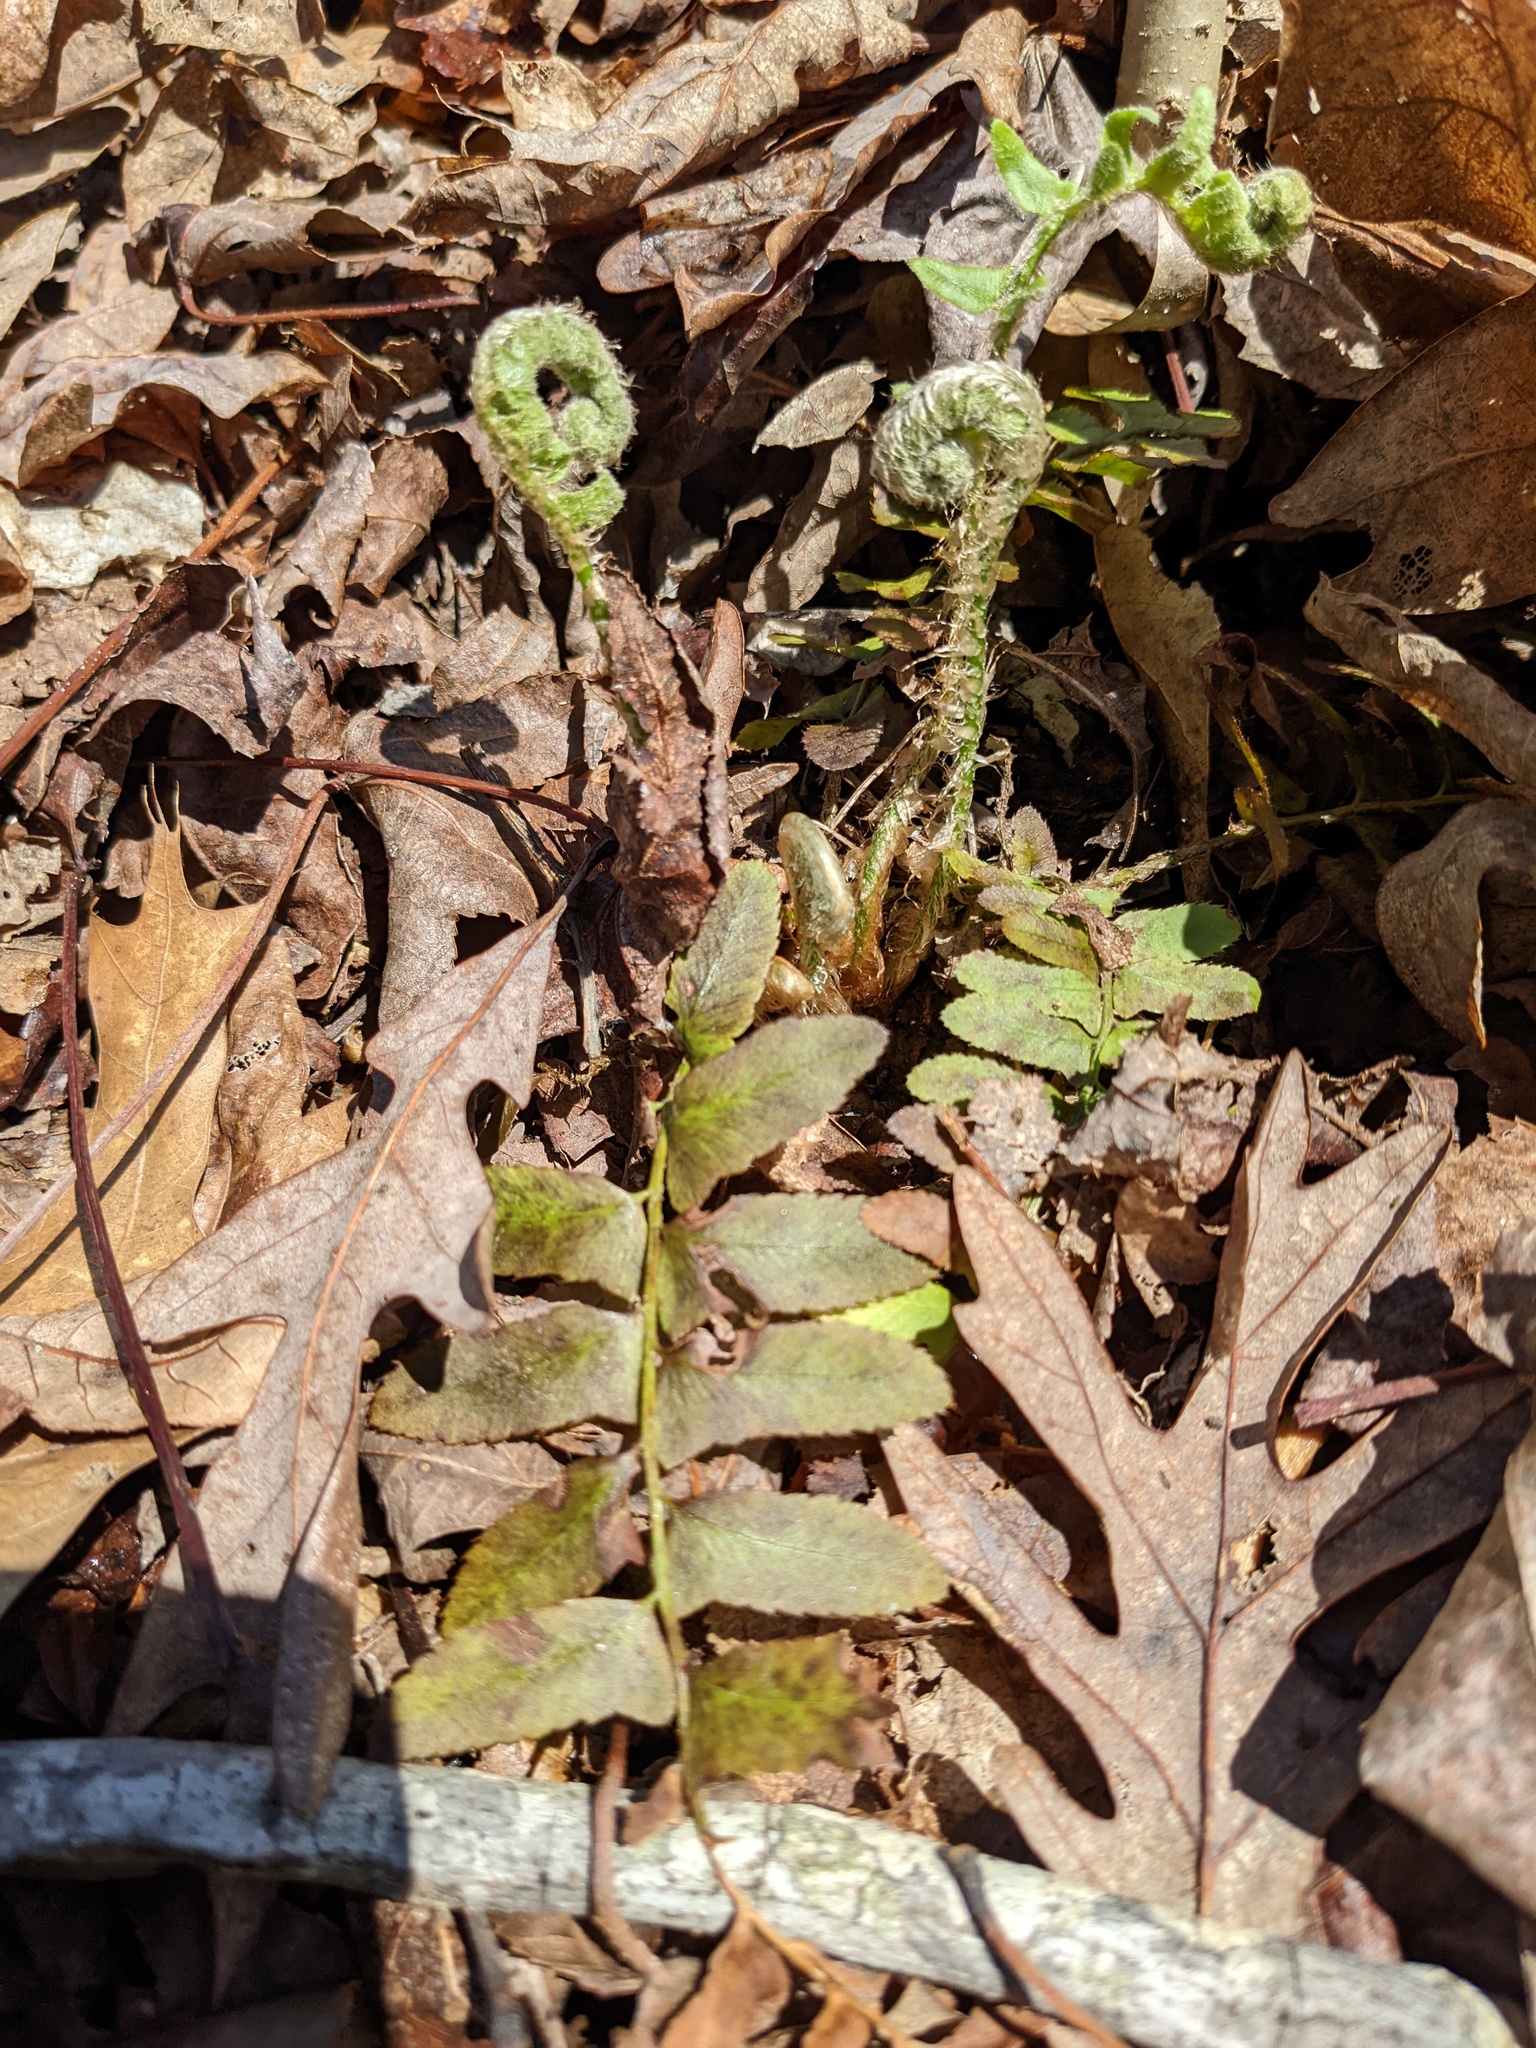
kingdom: Plantae
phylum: Tracheophyta
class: Polypodiopsida
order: Polypodiales
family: Dryopteridaceae
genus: Polystichum
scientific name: Polystichum acrostichoides
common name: Christmas fern
